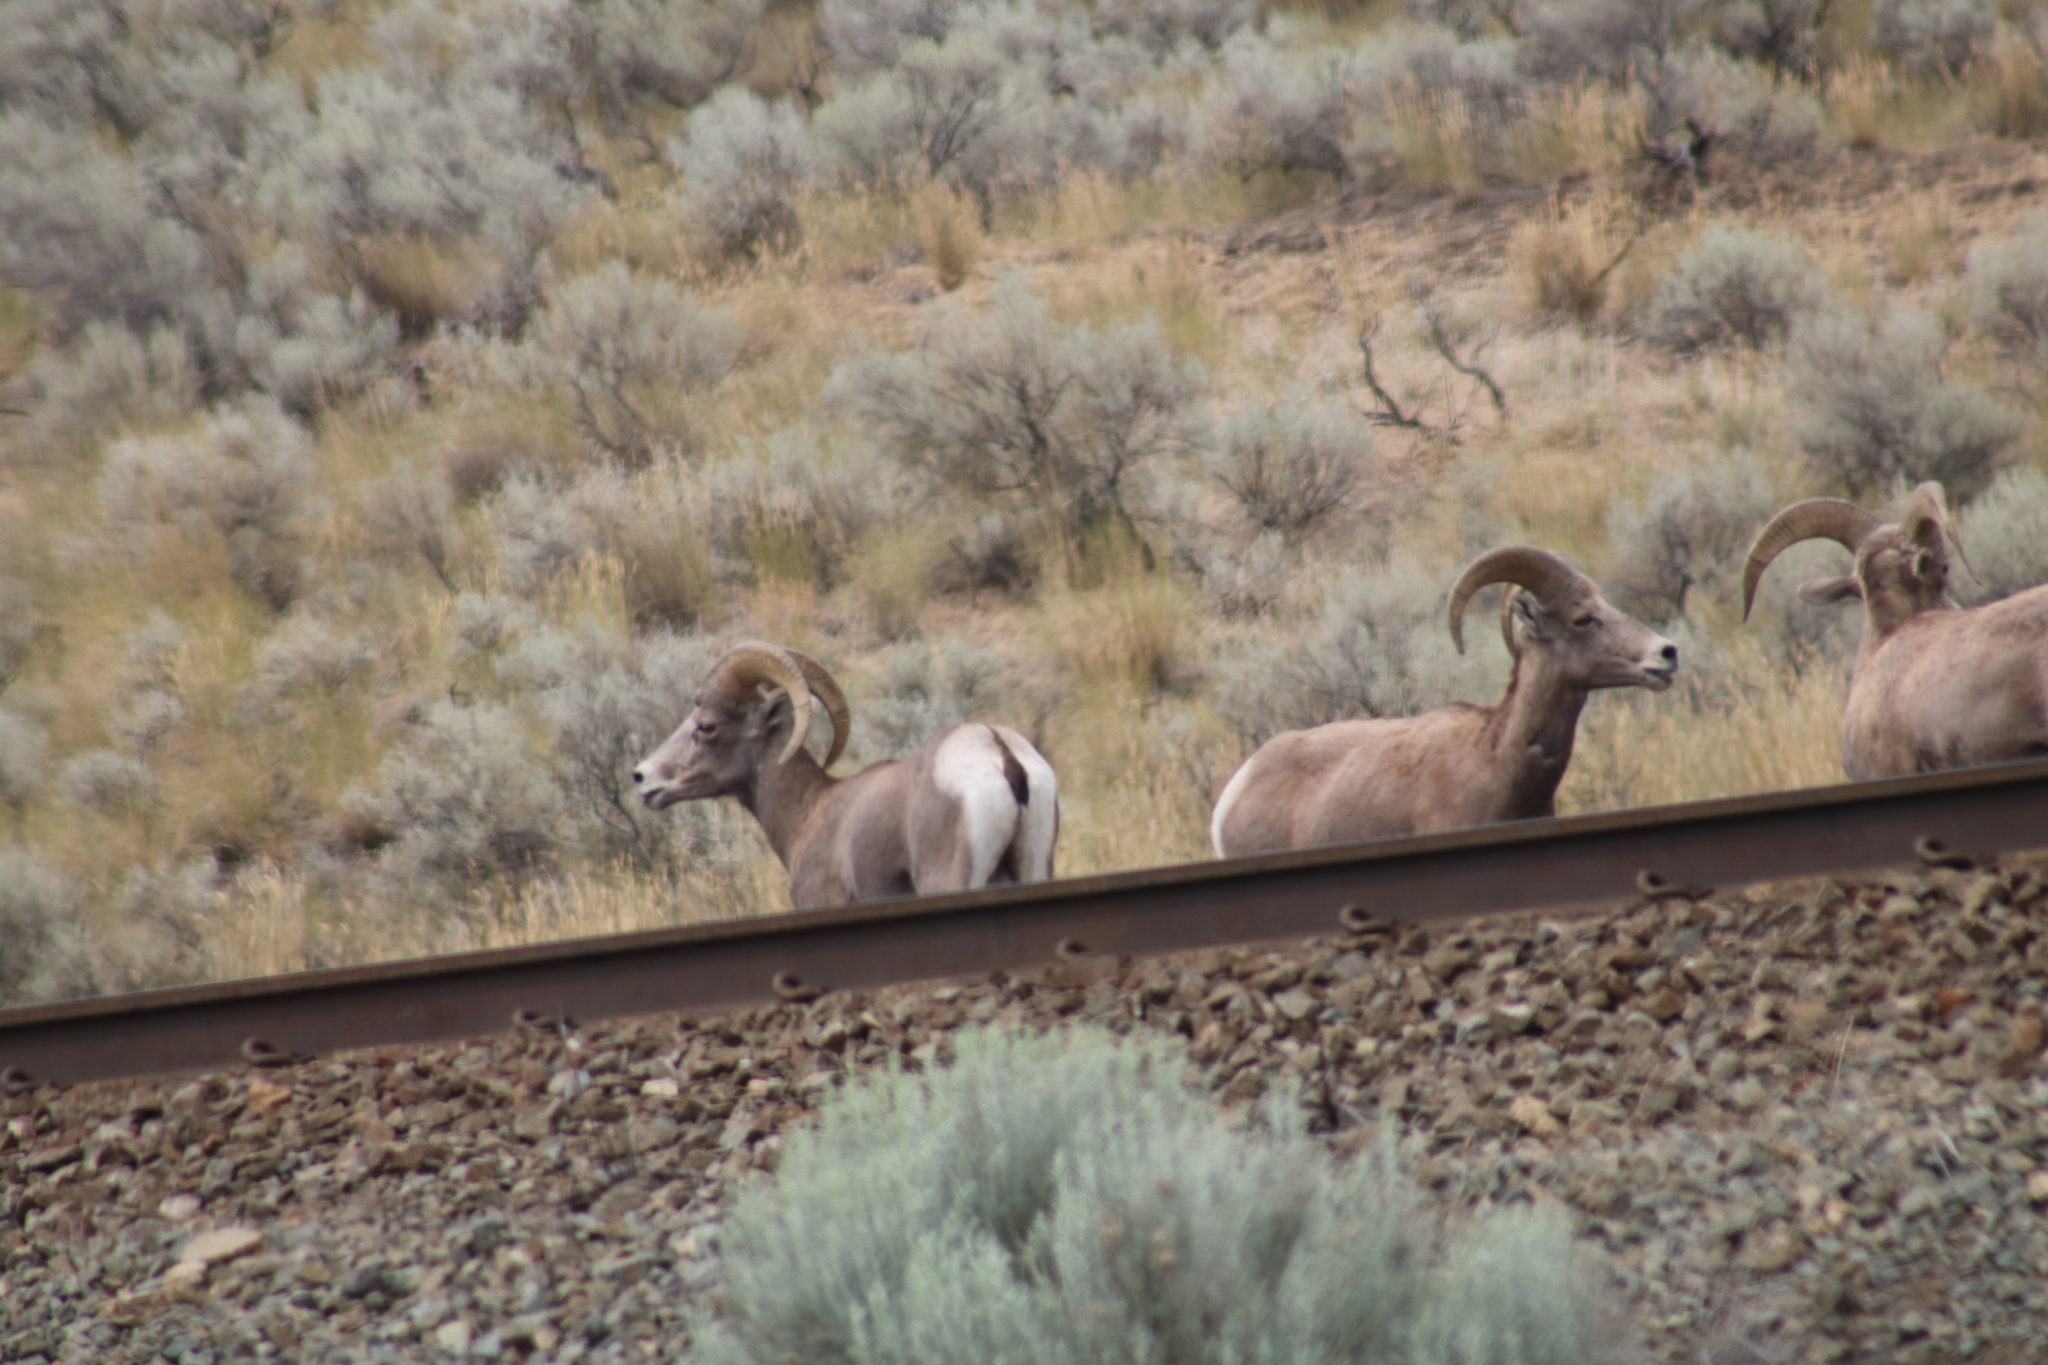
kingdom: Animalia
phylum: Chordata
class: Mammalia
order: Artiodactyla
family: Bovidae
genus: Ovis
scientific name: Ovis canadensis
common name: Bighorn sheep
